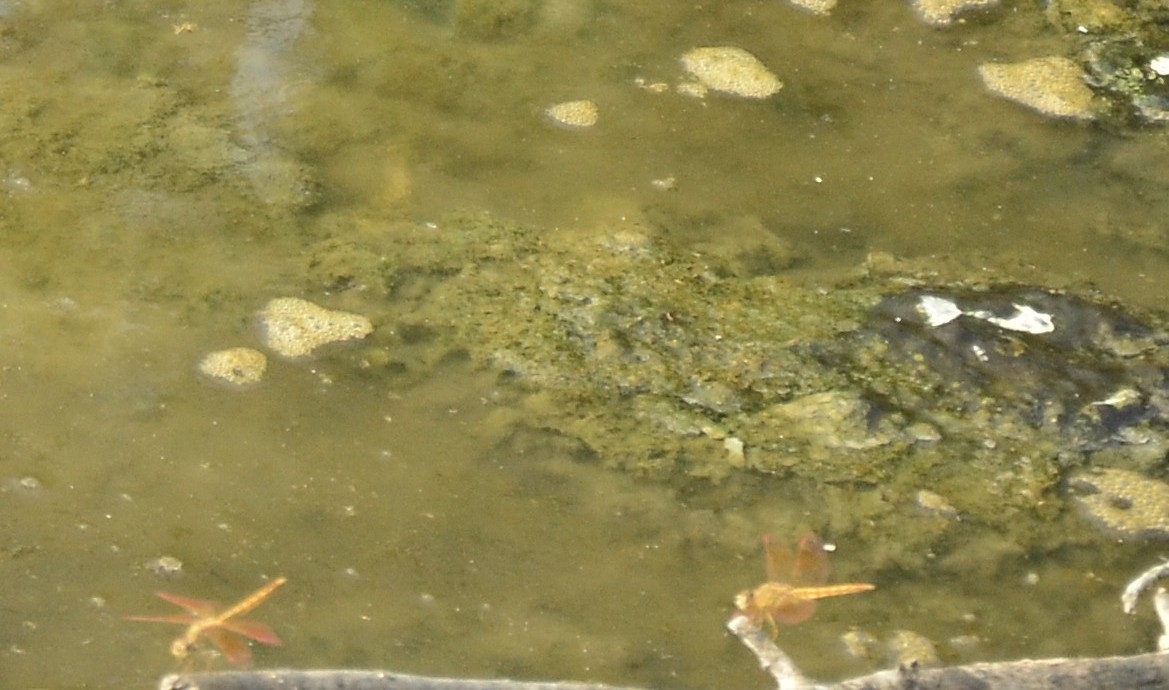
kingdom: Animalia
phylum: Arthropoda
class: Insecta
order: Odonata
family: Libellulidae
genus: Brachythemis
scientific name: Brachythemis contaminata
